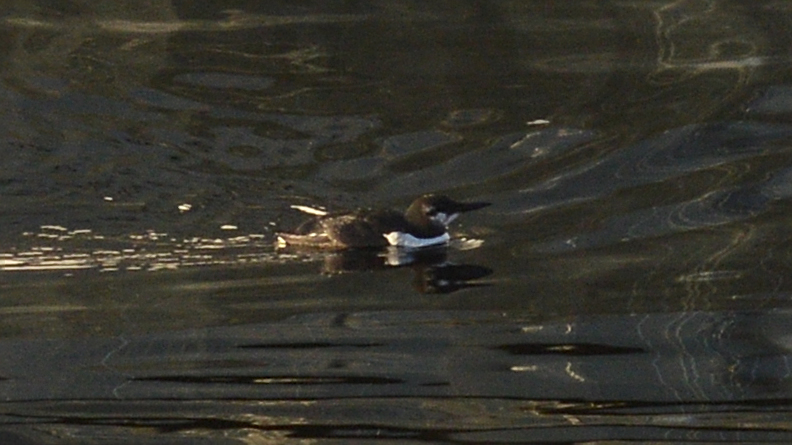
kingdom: Animalia
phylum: Chordata
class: Aves
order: Charadriiformes
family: Alcidae
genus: Uria
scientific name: Uria aalge
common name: Common murre
